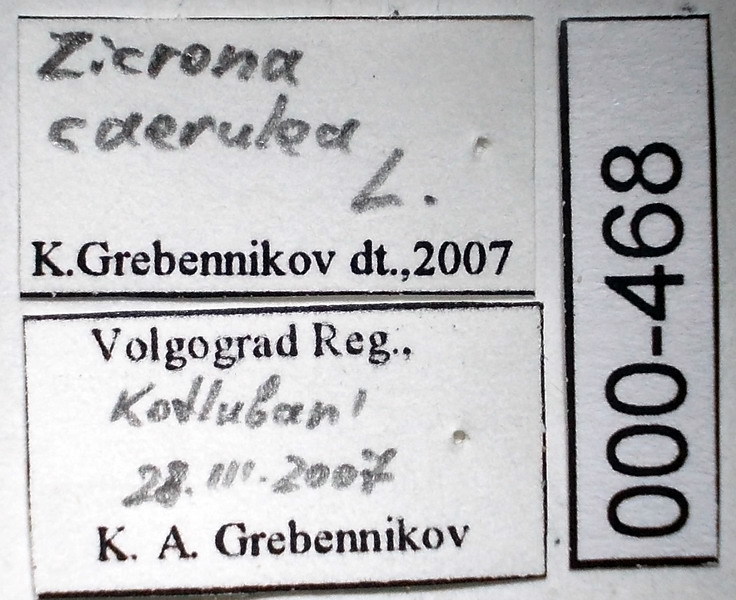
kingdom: Animalia
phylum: Arthropoda
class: Insecta
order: Hemiptera
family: Pentatomidae
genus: Zicrona
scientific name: Zicrona caerulea
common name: Blue shieldbug
